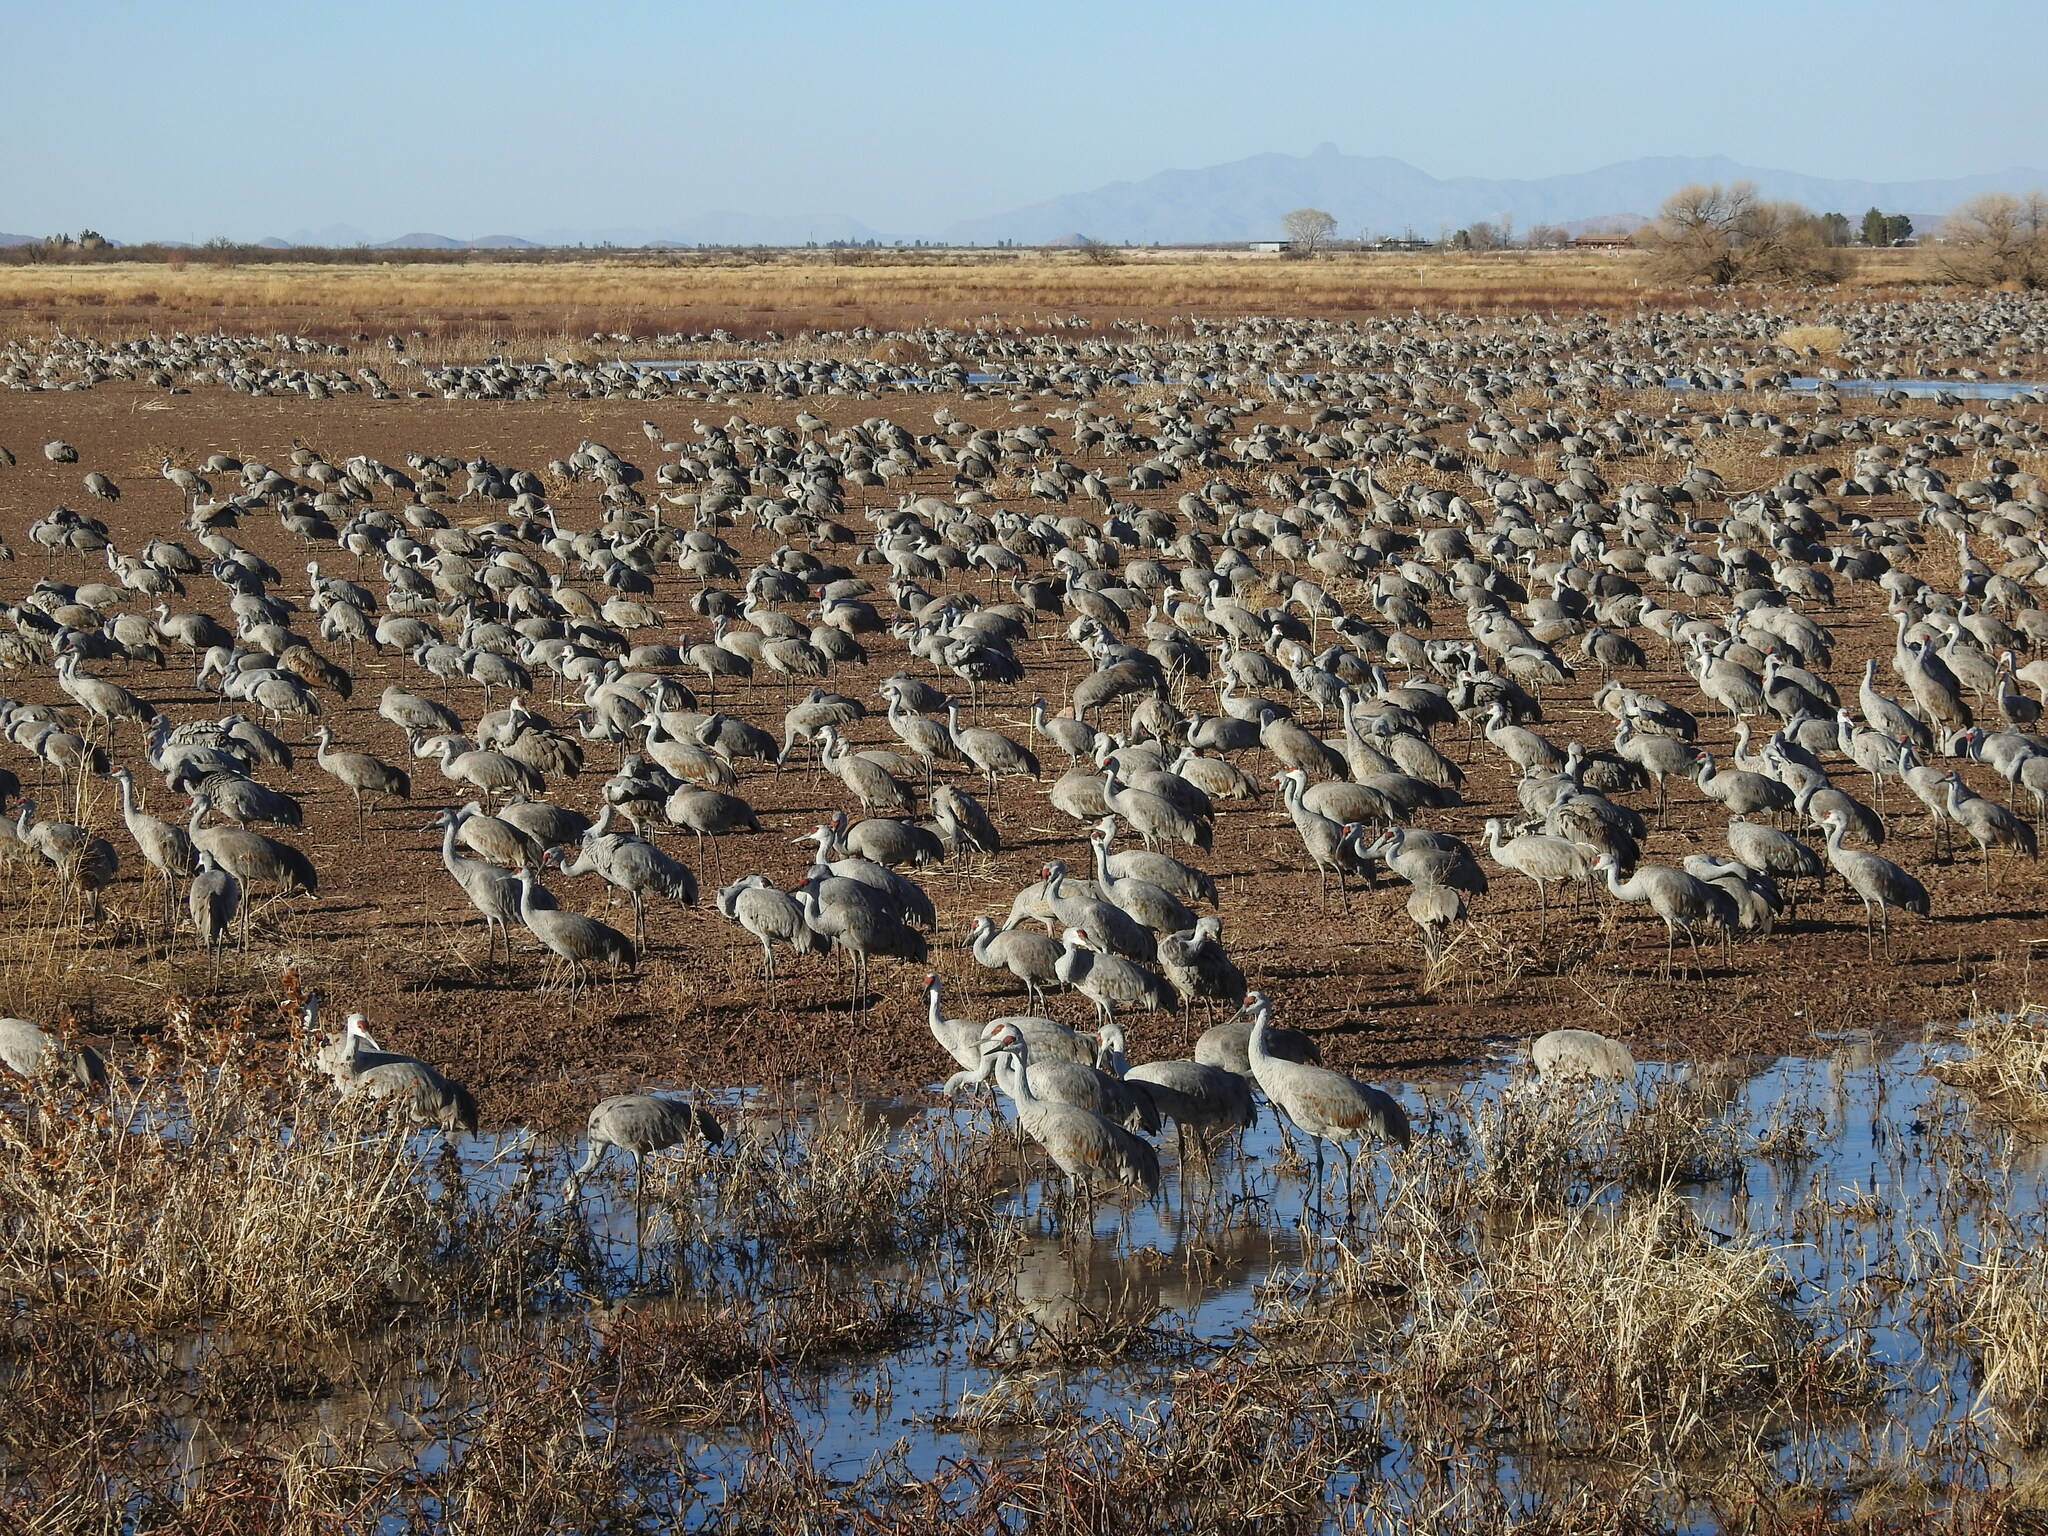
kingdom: Animalia
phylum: Chordata
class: Aves
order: Gruiformes
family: Gruidae
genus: Grus
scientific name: Grus canadensis
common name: Sandhill crane
